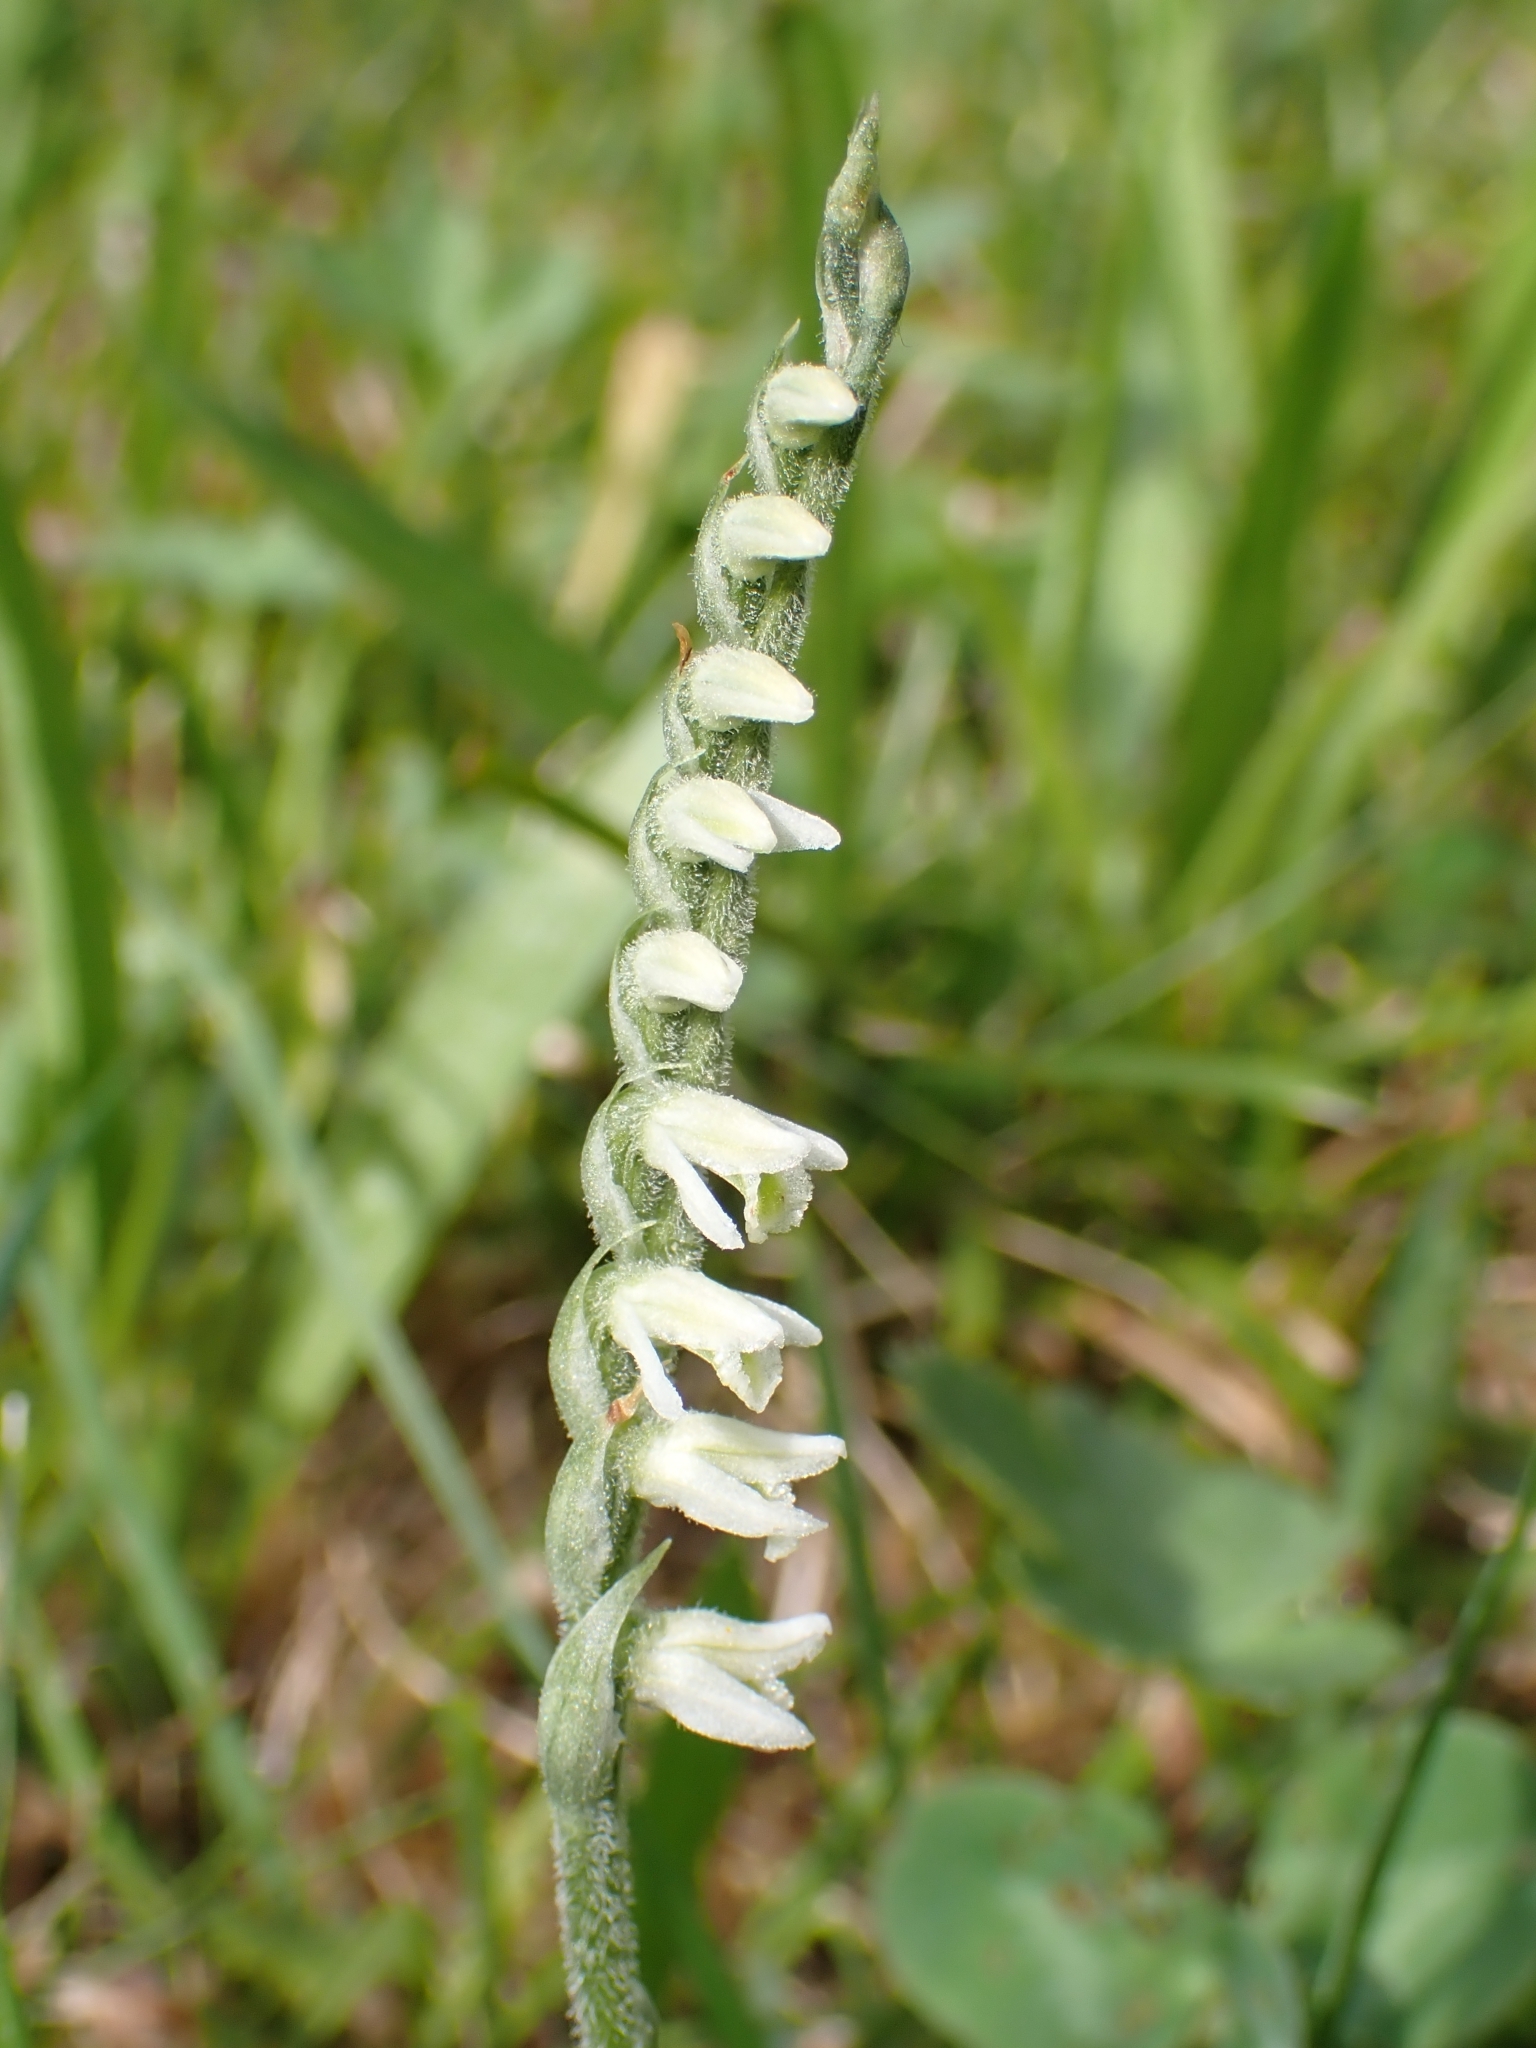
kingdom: Plantae
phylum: Tracheophyta
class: Liliopsida
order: Asparagales
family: Orchidaceae
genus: Spiranthes
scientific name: Spiranthes spiralis
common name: Autumn lady's-tresses
